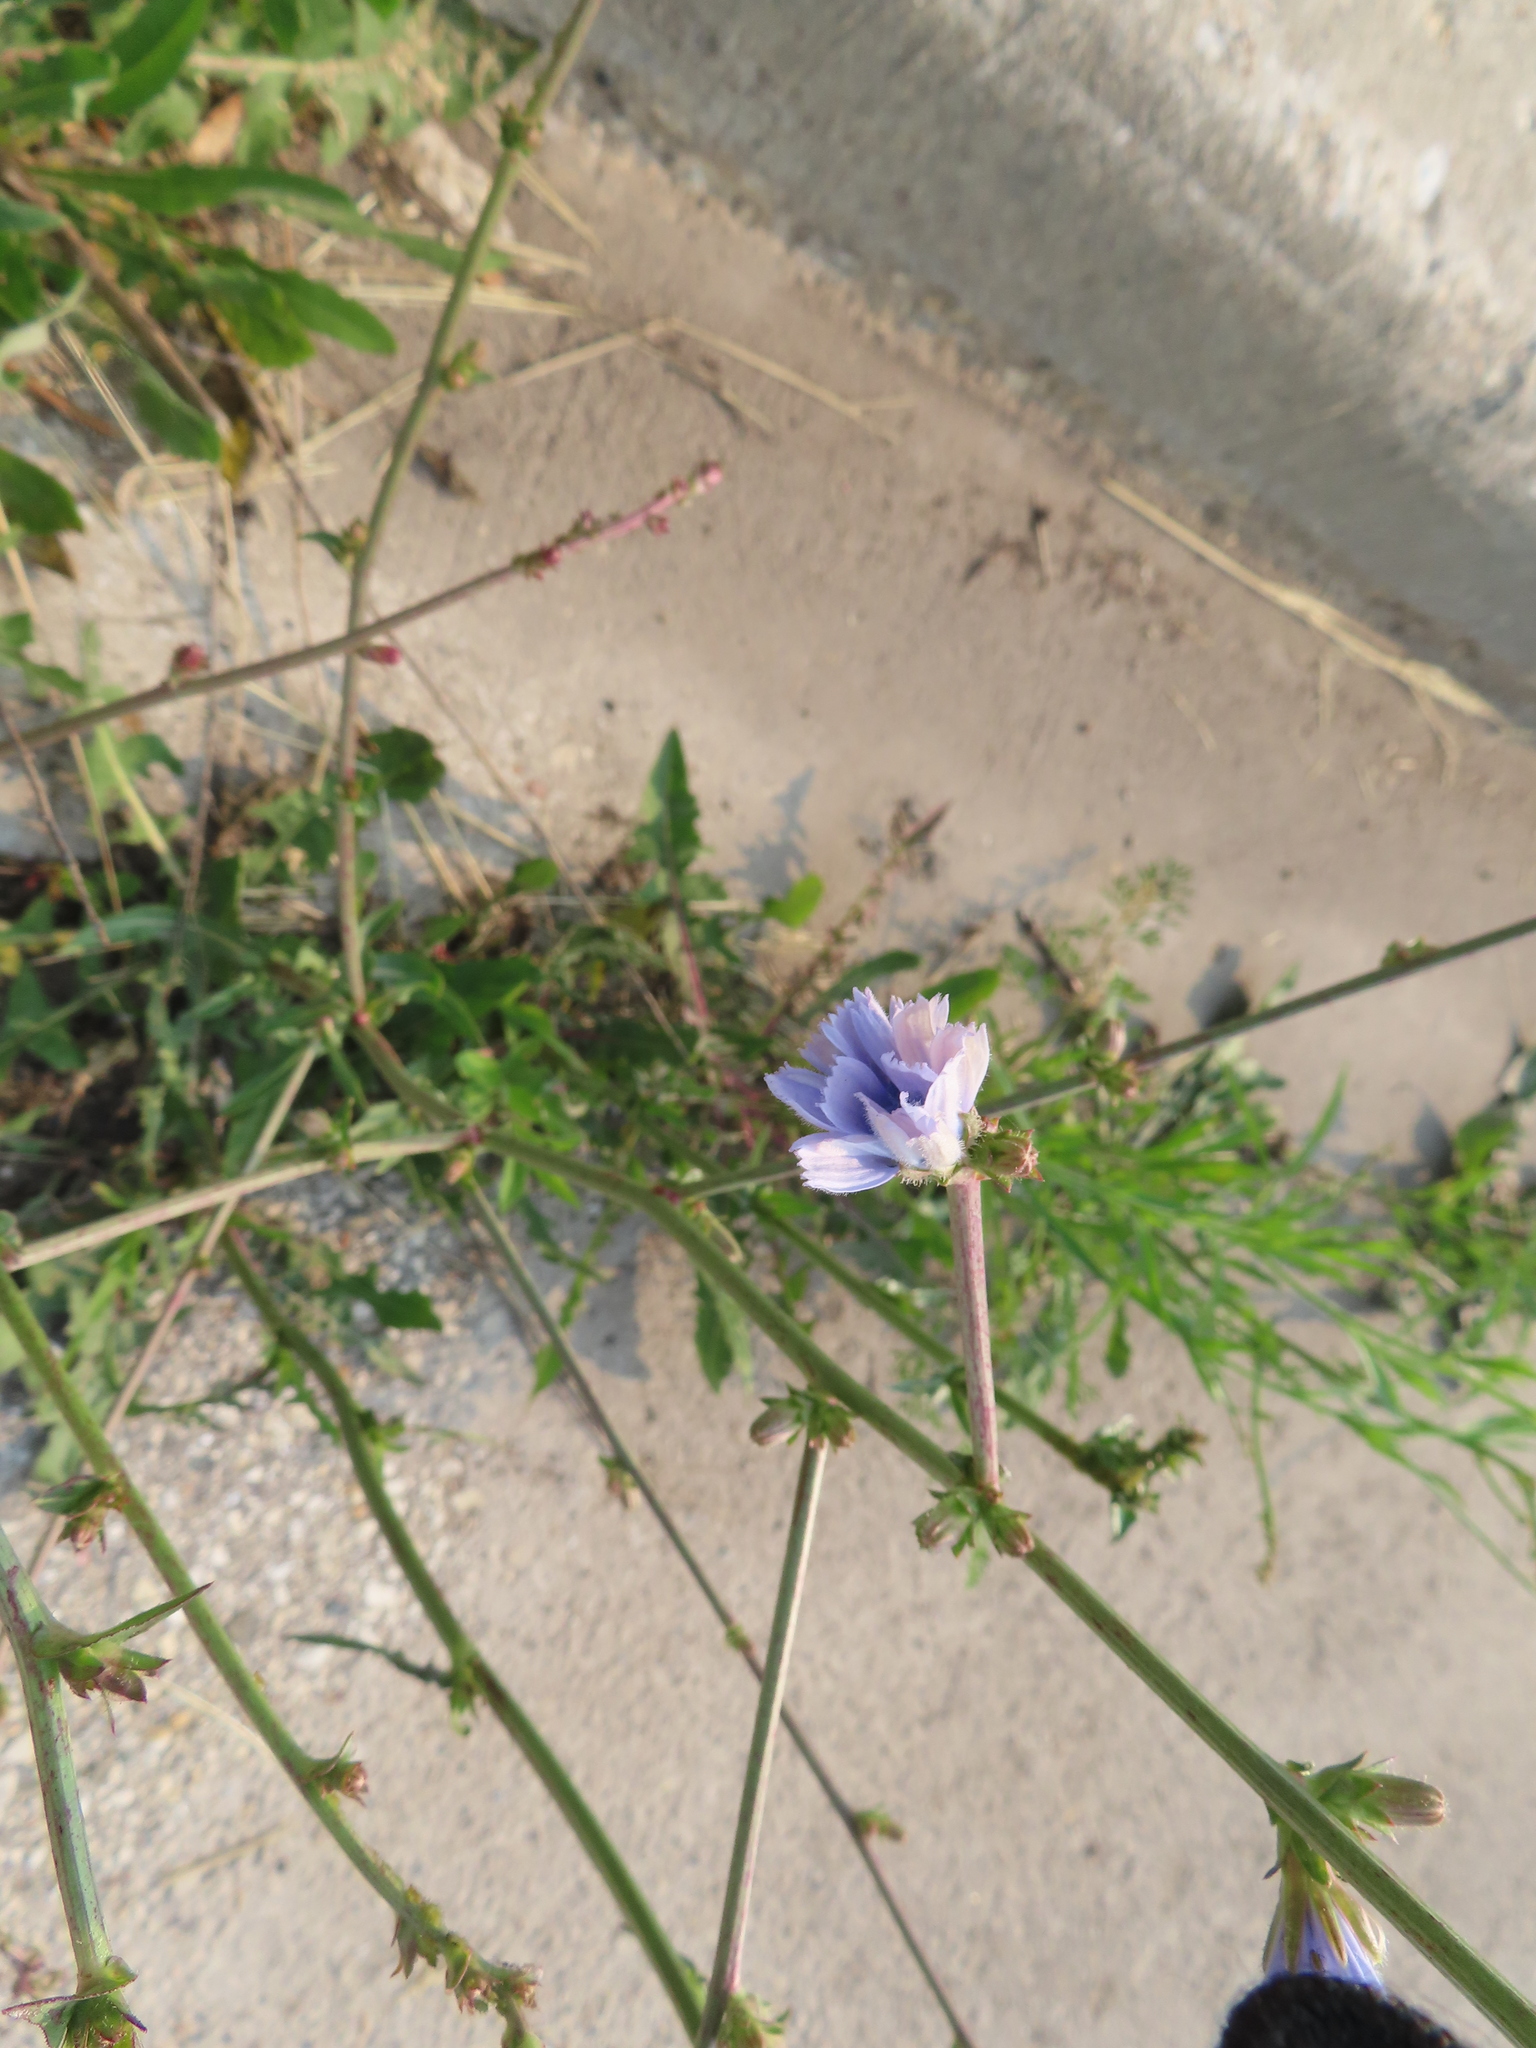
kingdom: Plantae
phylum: Tracheophyta
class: Magnoliopsida
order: Asterales
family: Asteraceae
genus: Cichorium
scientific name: Cichorium intybus
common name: Chicory
